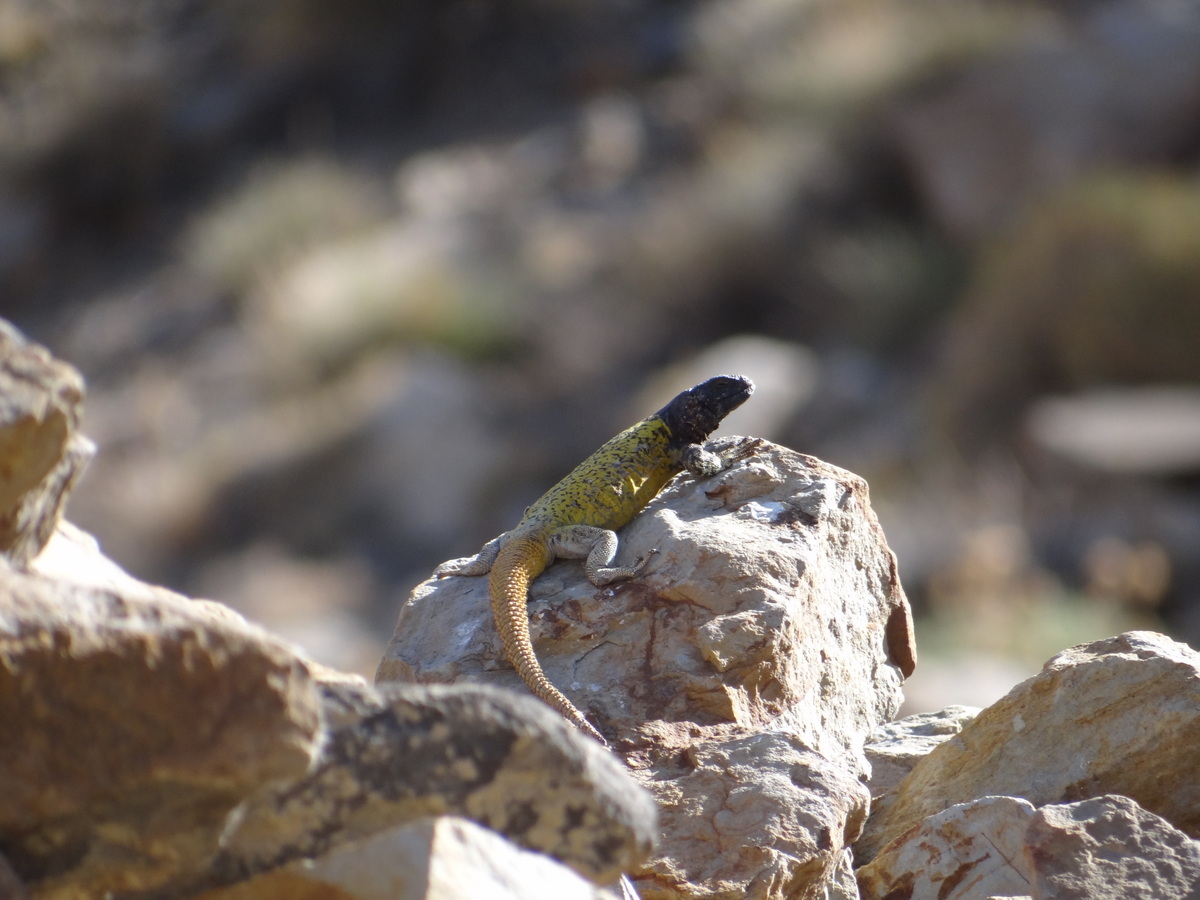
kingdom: Animalia
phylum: Chordata
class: Squamata
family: Liolaemidae
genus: Phymaturus
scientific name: Phymaturus verdugo
